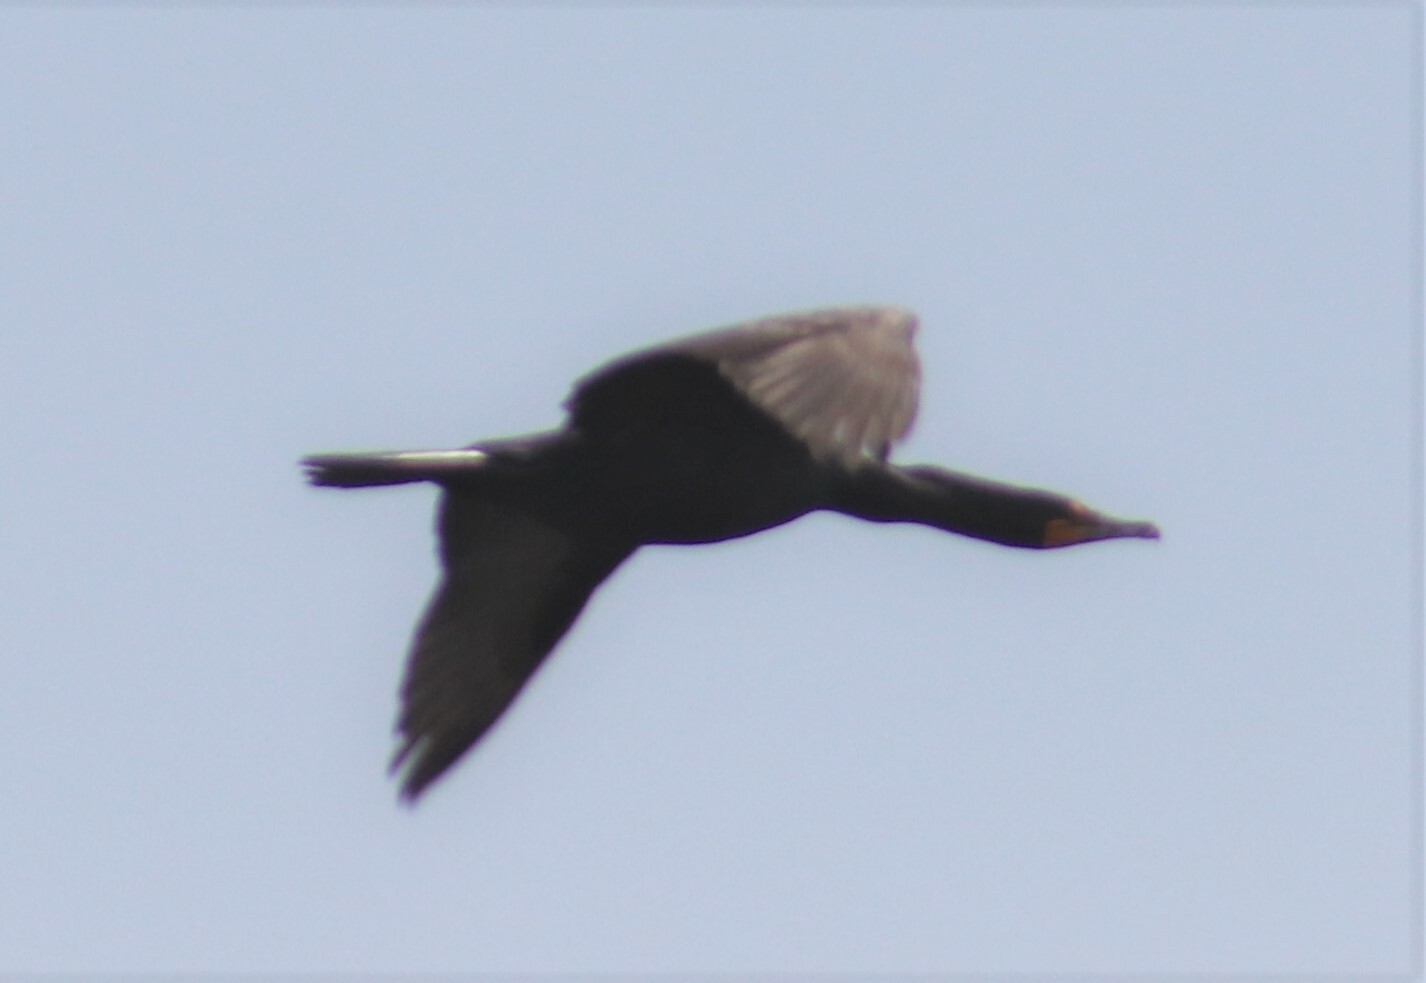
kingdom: Animalia
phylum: Chordata
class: Aves
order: Suliformes
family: Phalacrocoracidae
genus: Phalacrocorax
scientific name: Phalacrocorax auritus
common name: Double-crested cormorant
